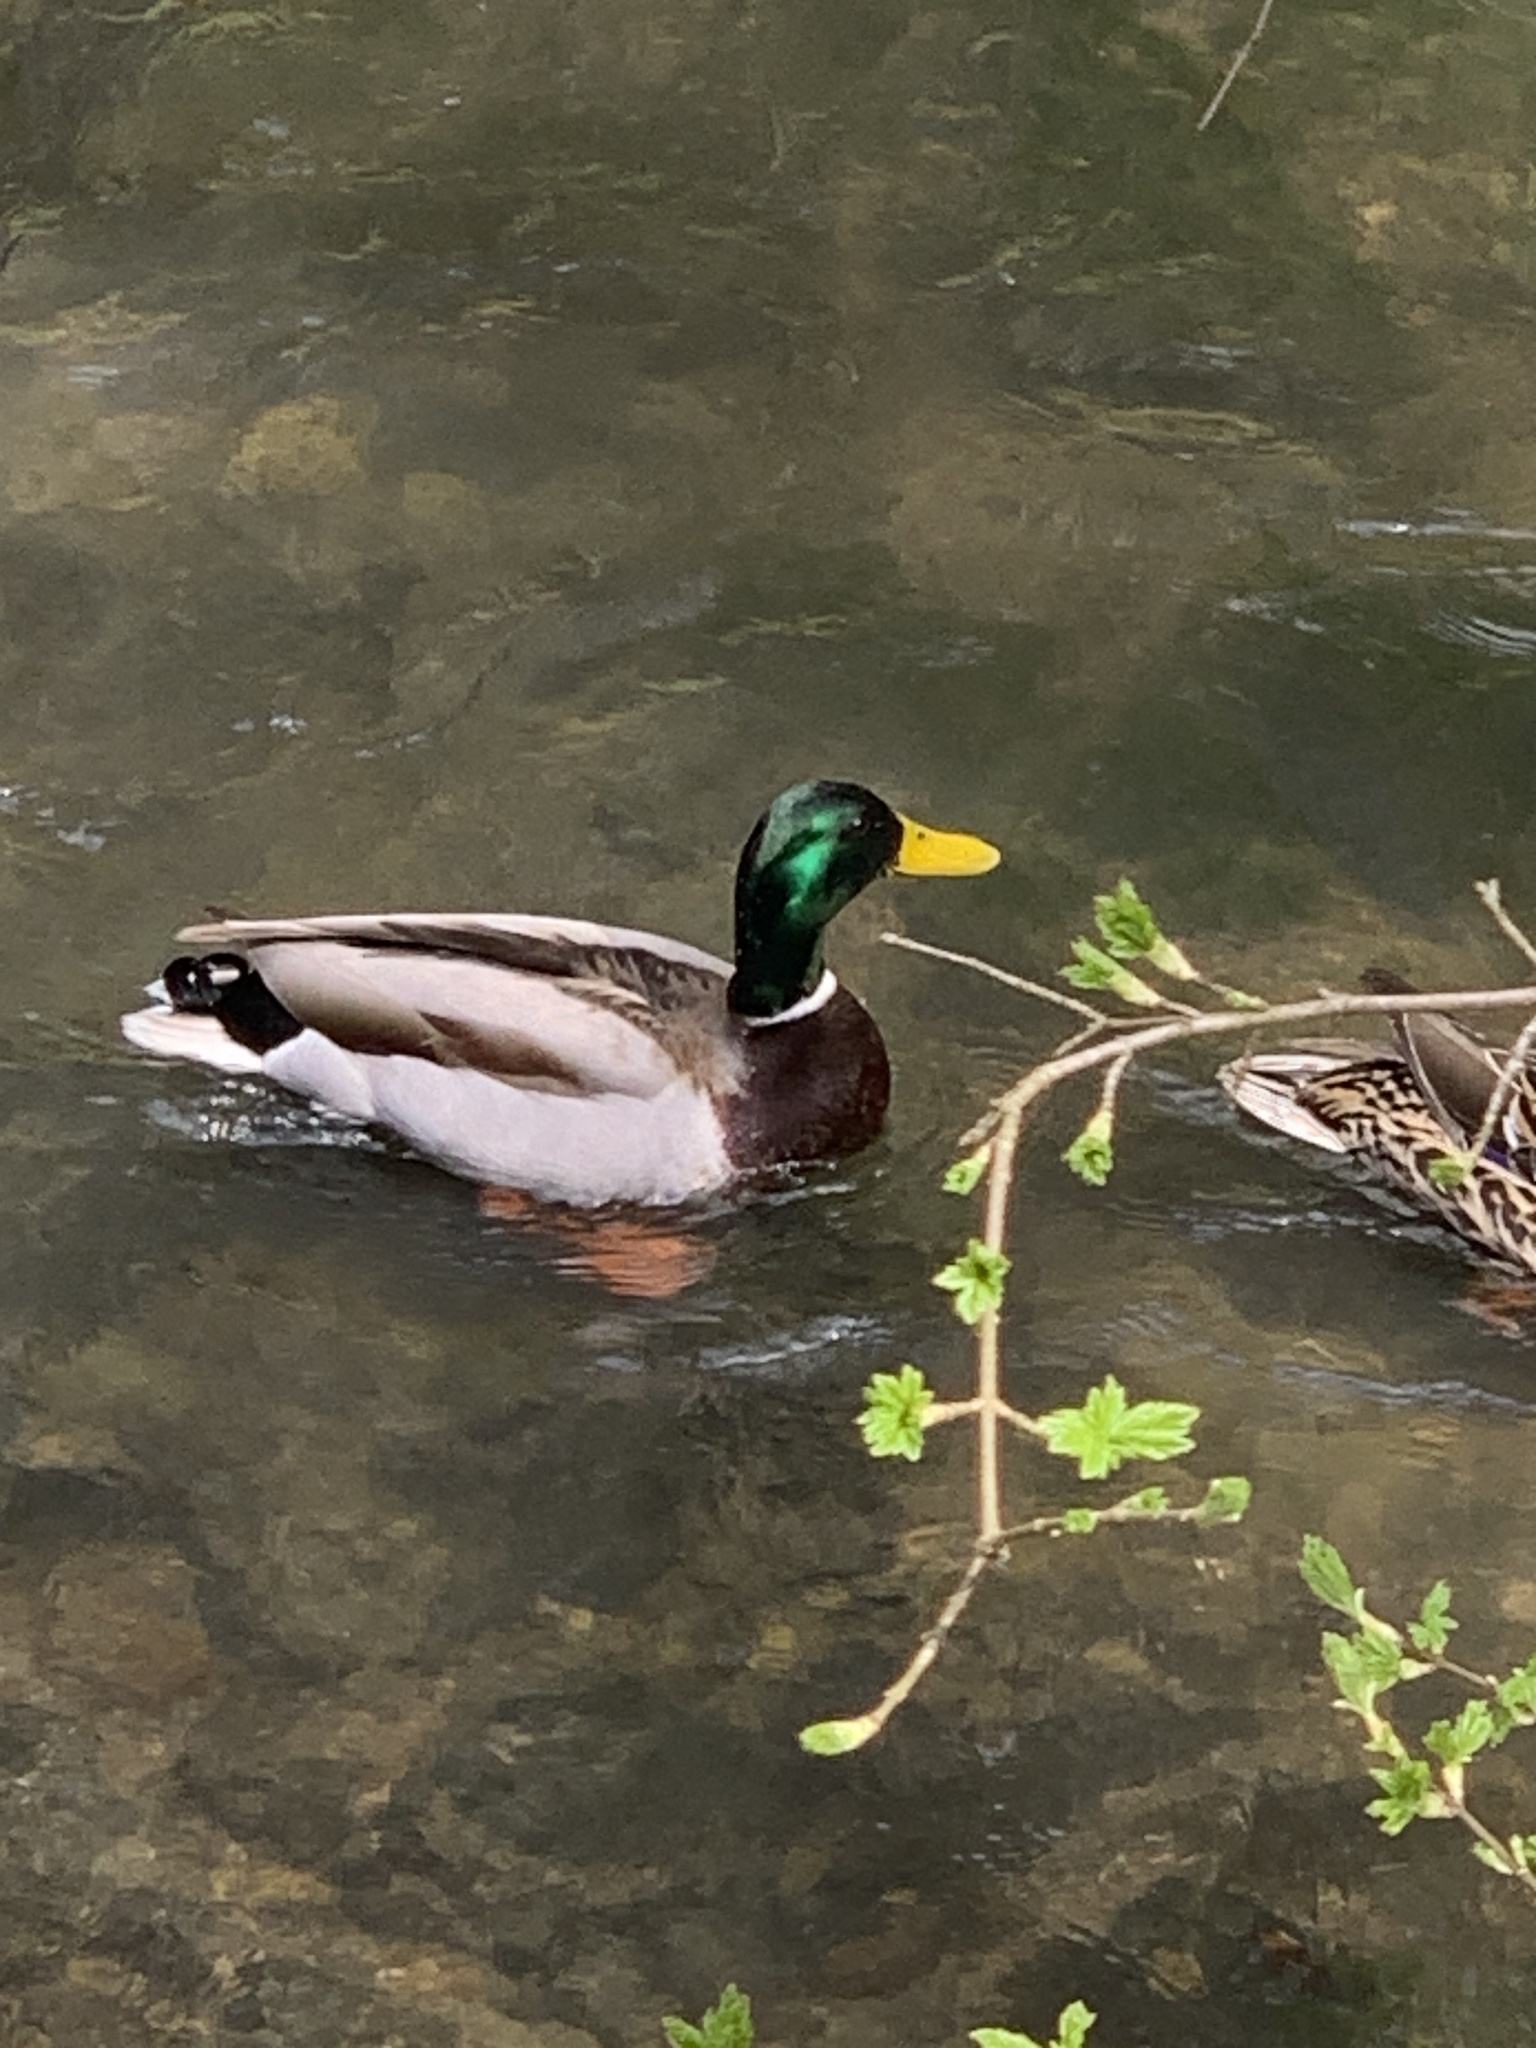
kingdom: Animalia
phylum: Chordata
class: Aves
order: Anseriformes
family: Anatidae
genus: Anas
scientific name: Anas platyrhynchos
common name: Mallard
